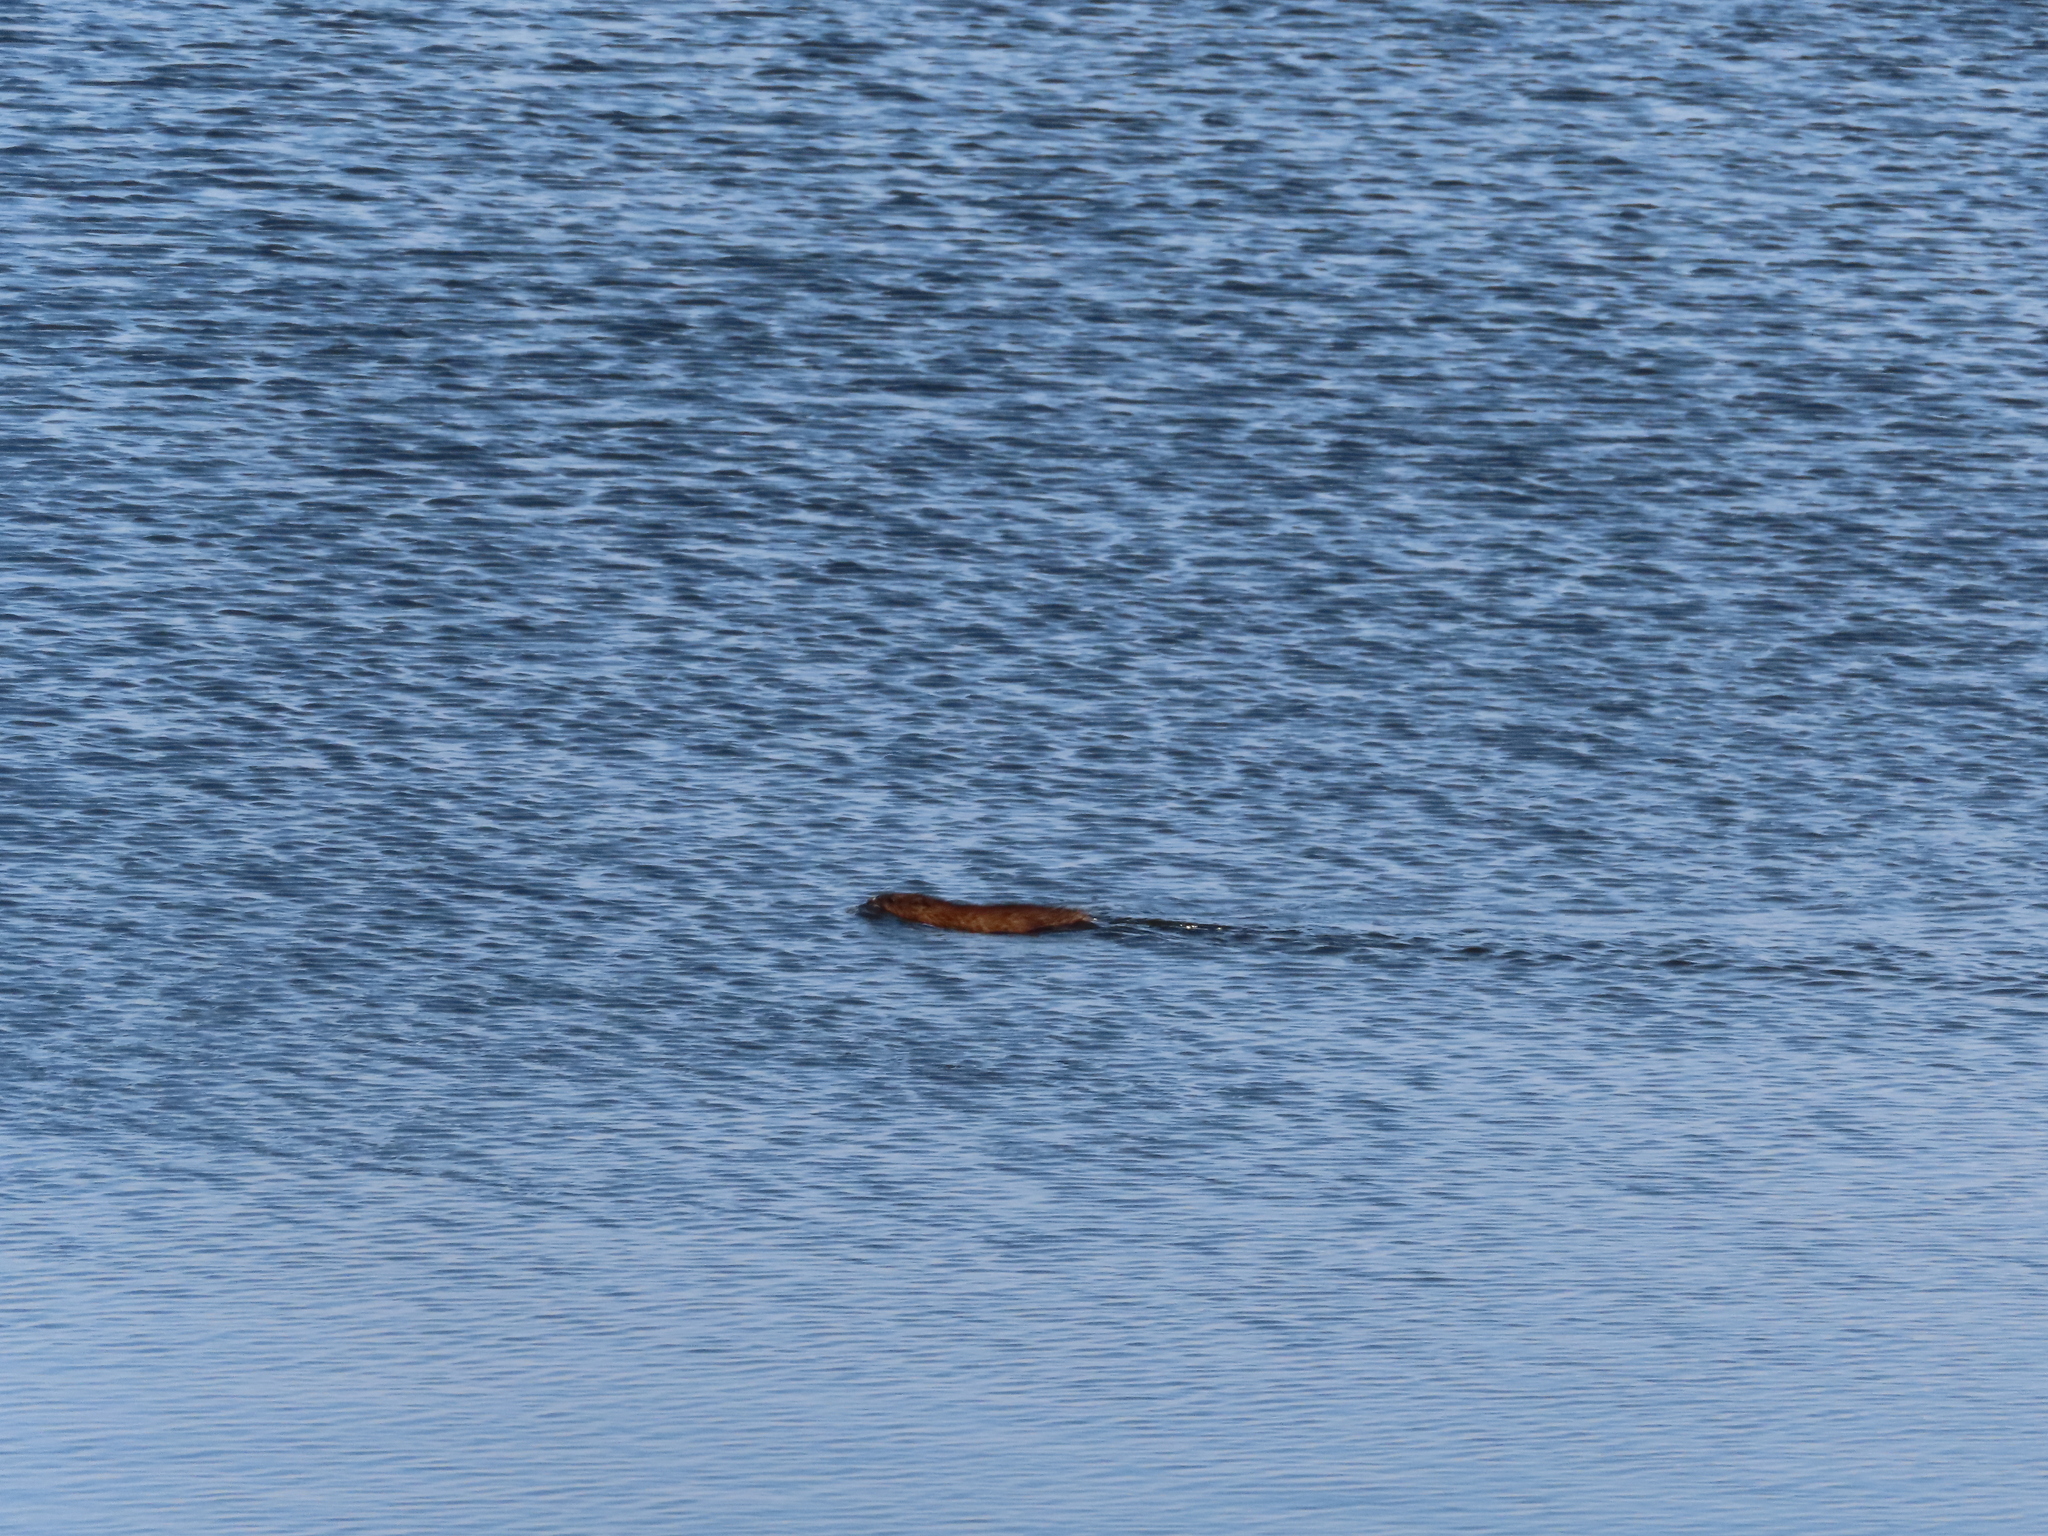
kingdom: Animalia
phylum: Chordata
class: Mammalia
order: Rodentia
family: Cricetidae
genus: Ondatra
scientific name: Ondatra zibethicus
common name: Muskrat
